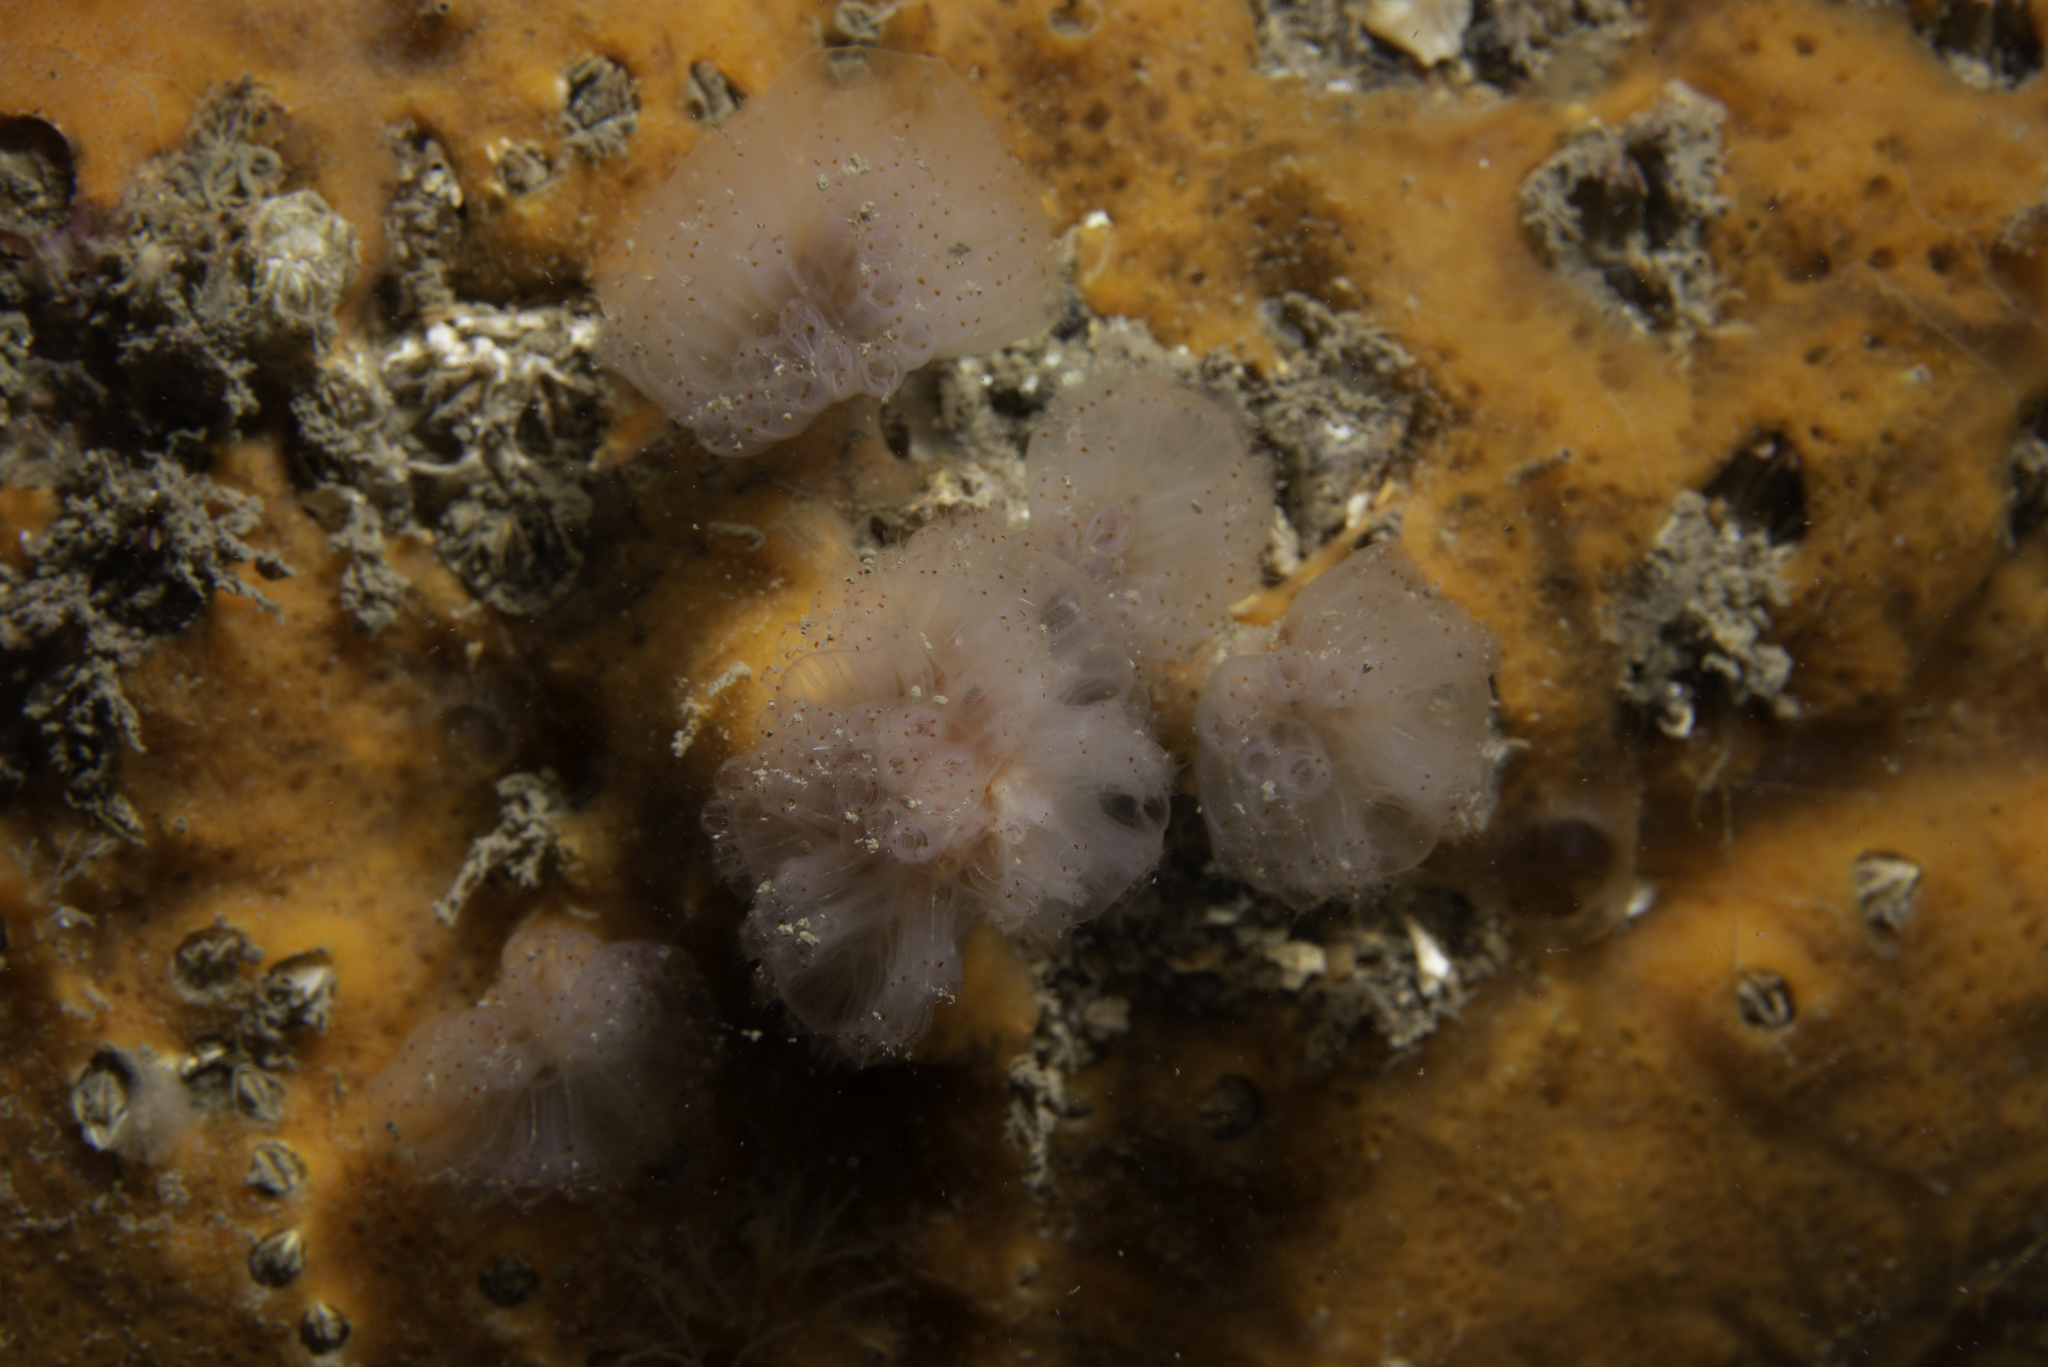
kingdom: Animalia
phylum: Chordata
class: Ascidiacea
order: Aplousobranchia
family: Polyclinidae
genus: Morchellium
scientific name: Morchellium argus
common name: Colonial sesquirt
